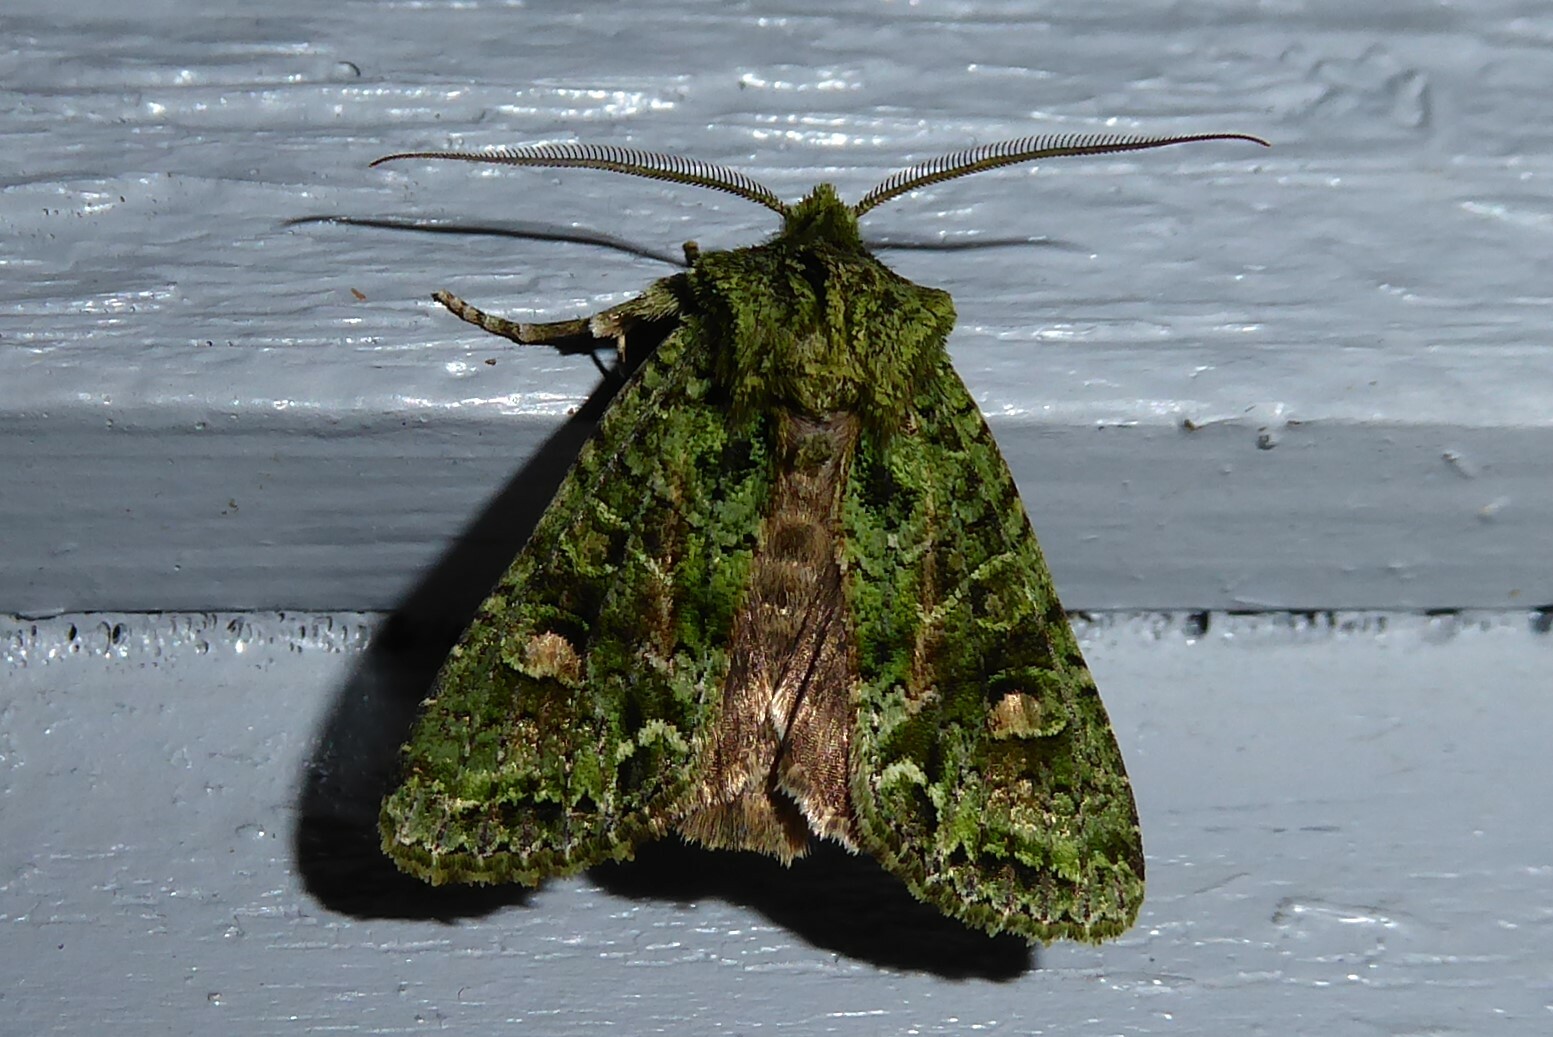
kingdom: Animalia
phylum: Arthropoda
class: Insecta
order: Lepidoptera
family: Noctuidae
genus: Ichneutica
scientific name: Ichneutica
